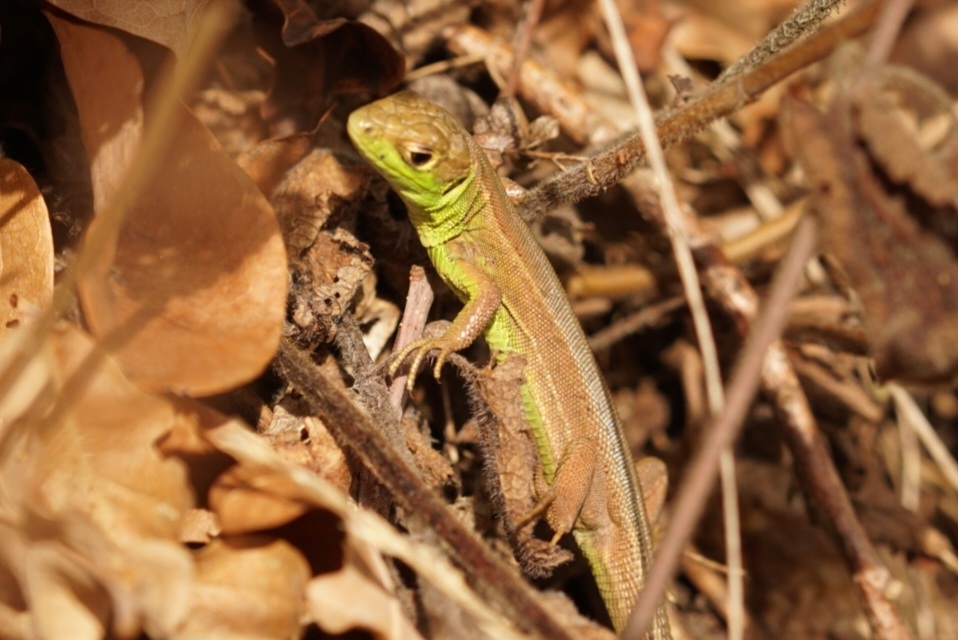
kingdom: Animalia
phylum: Chordata
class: Squamata
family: Lacertidae
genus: Lacerta
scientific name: Lacerta bilineata
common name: Western green lizard
